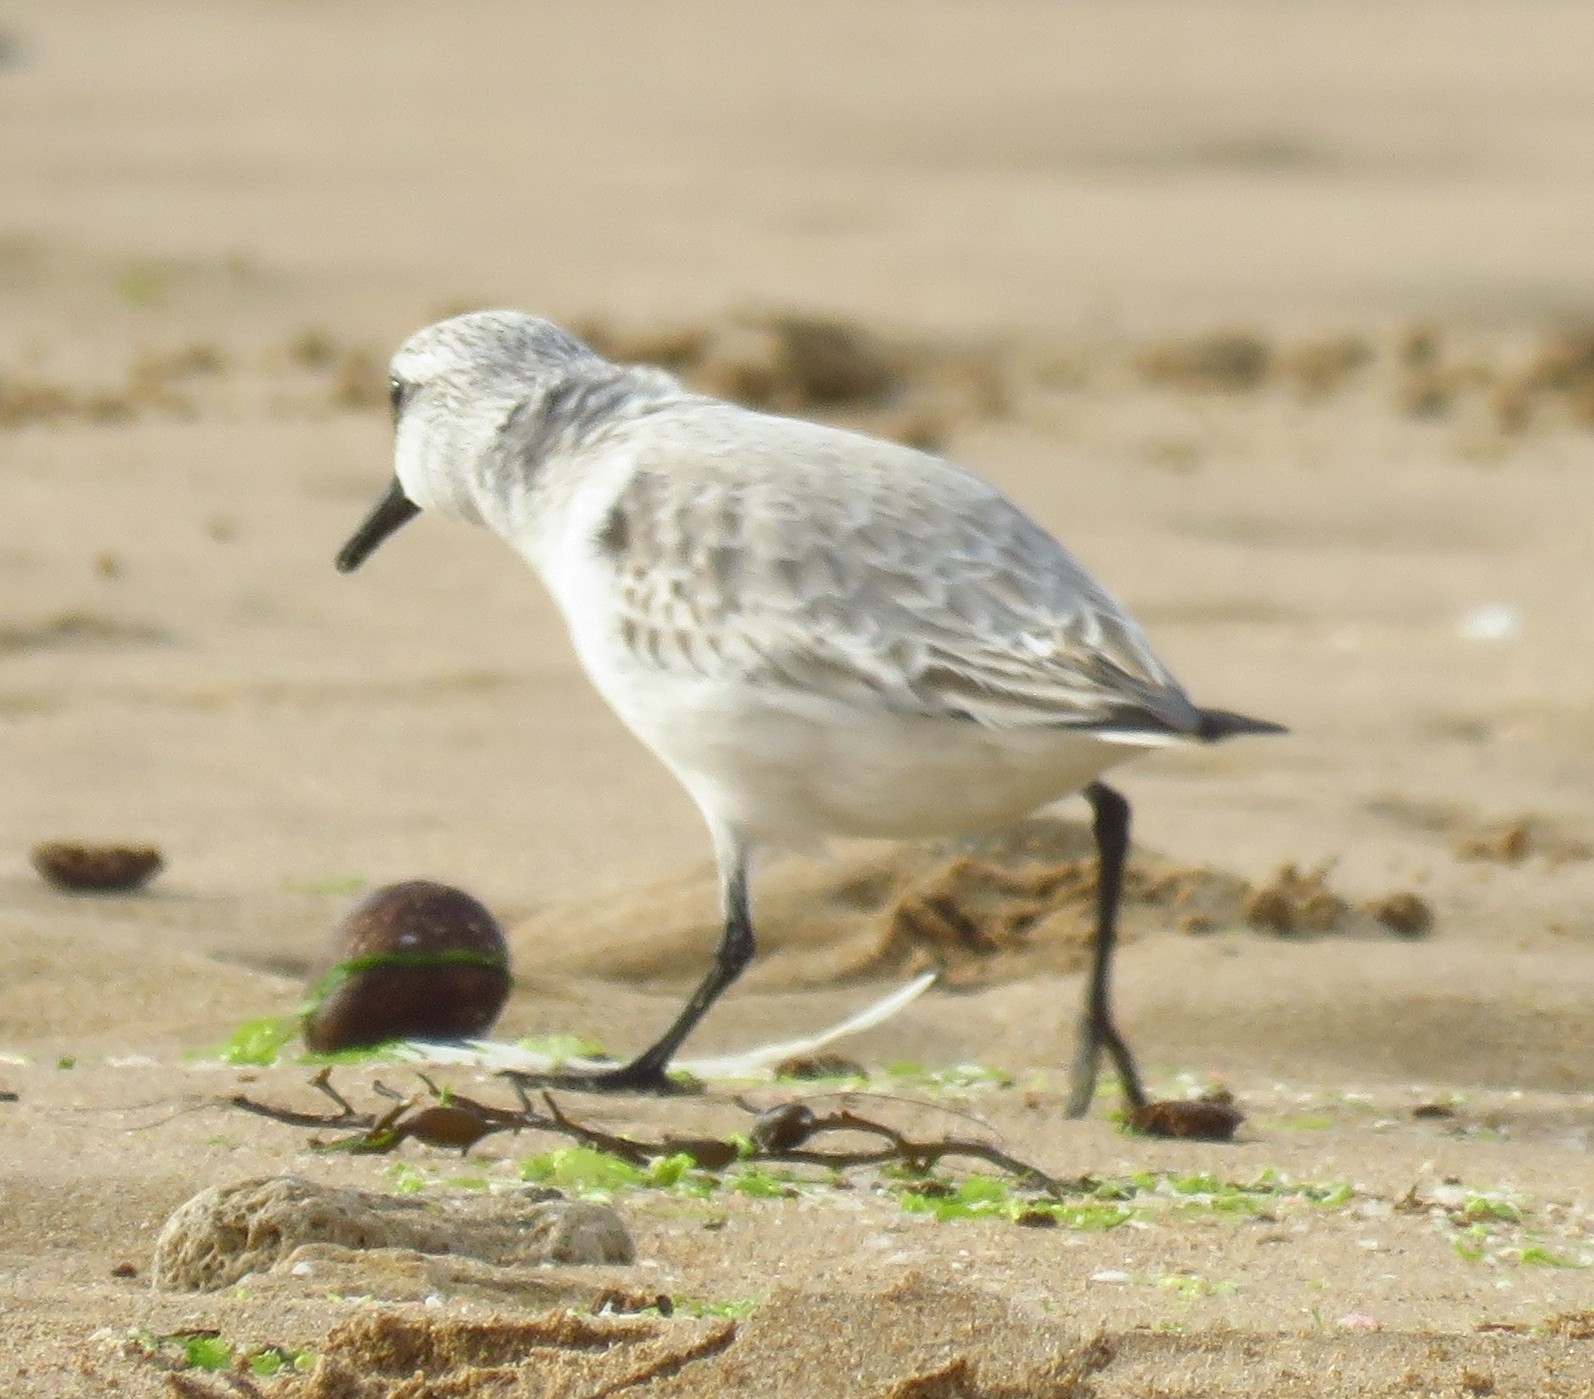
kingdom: Animalia
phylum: Chordata
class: Aves
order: Charadriiformes
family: Scolopacidae
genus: Calidris
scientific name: Calidris alba
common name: Sanderling
